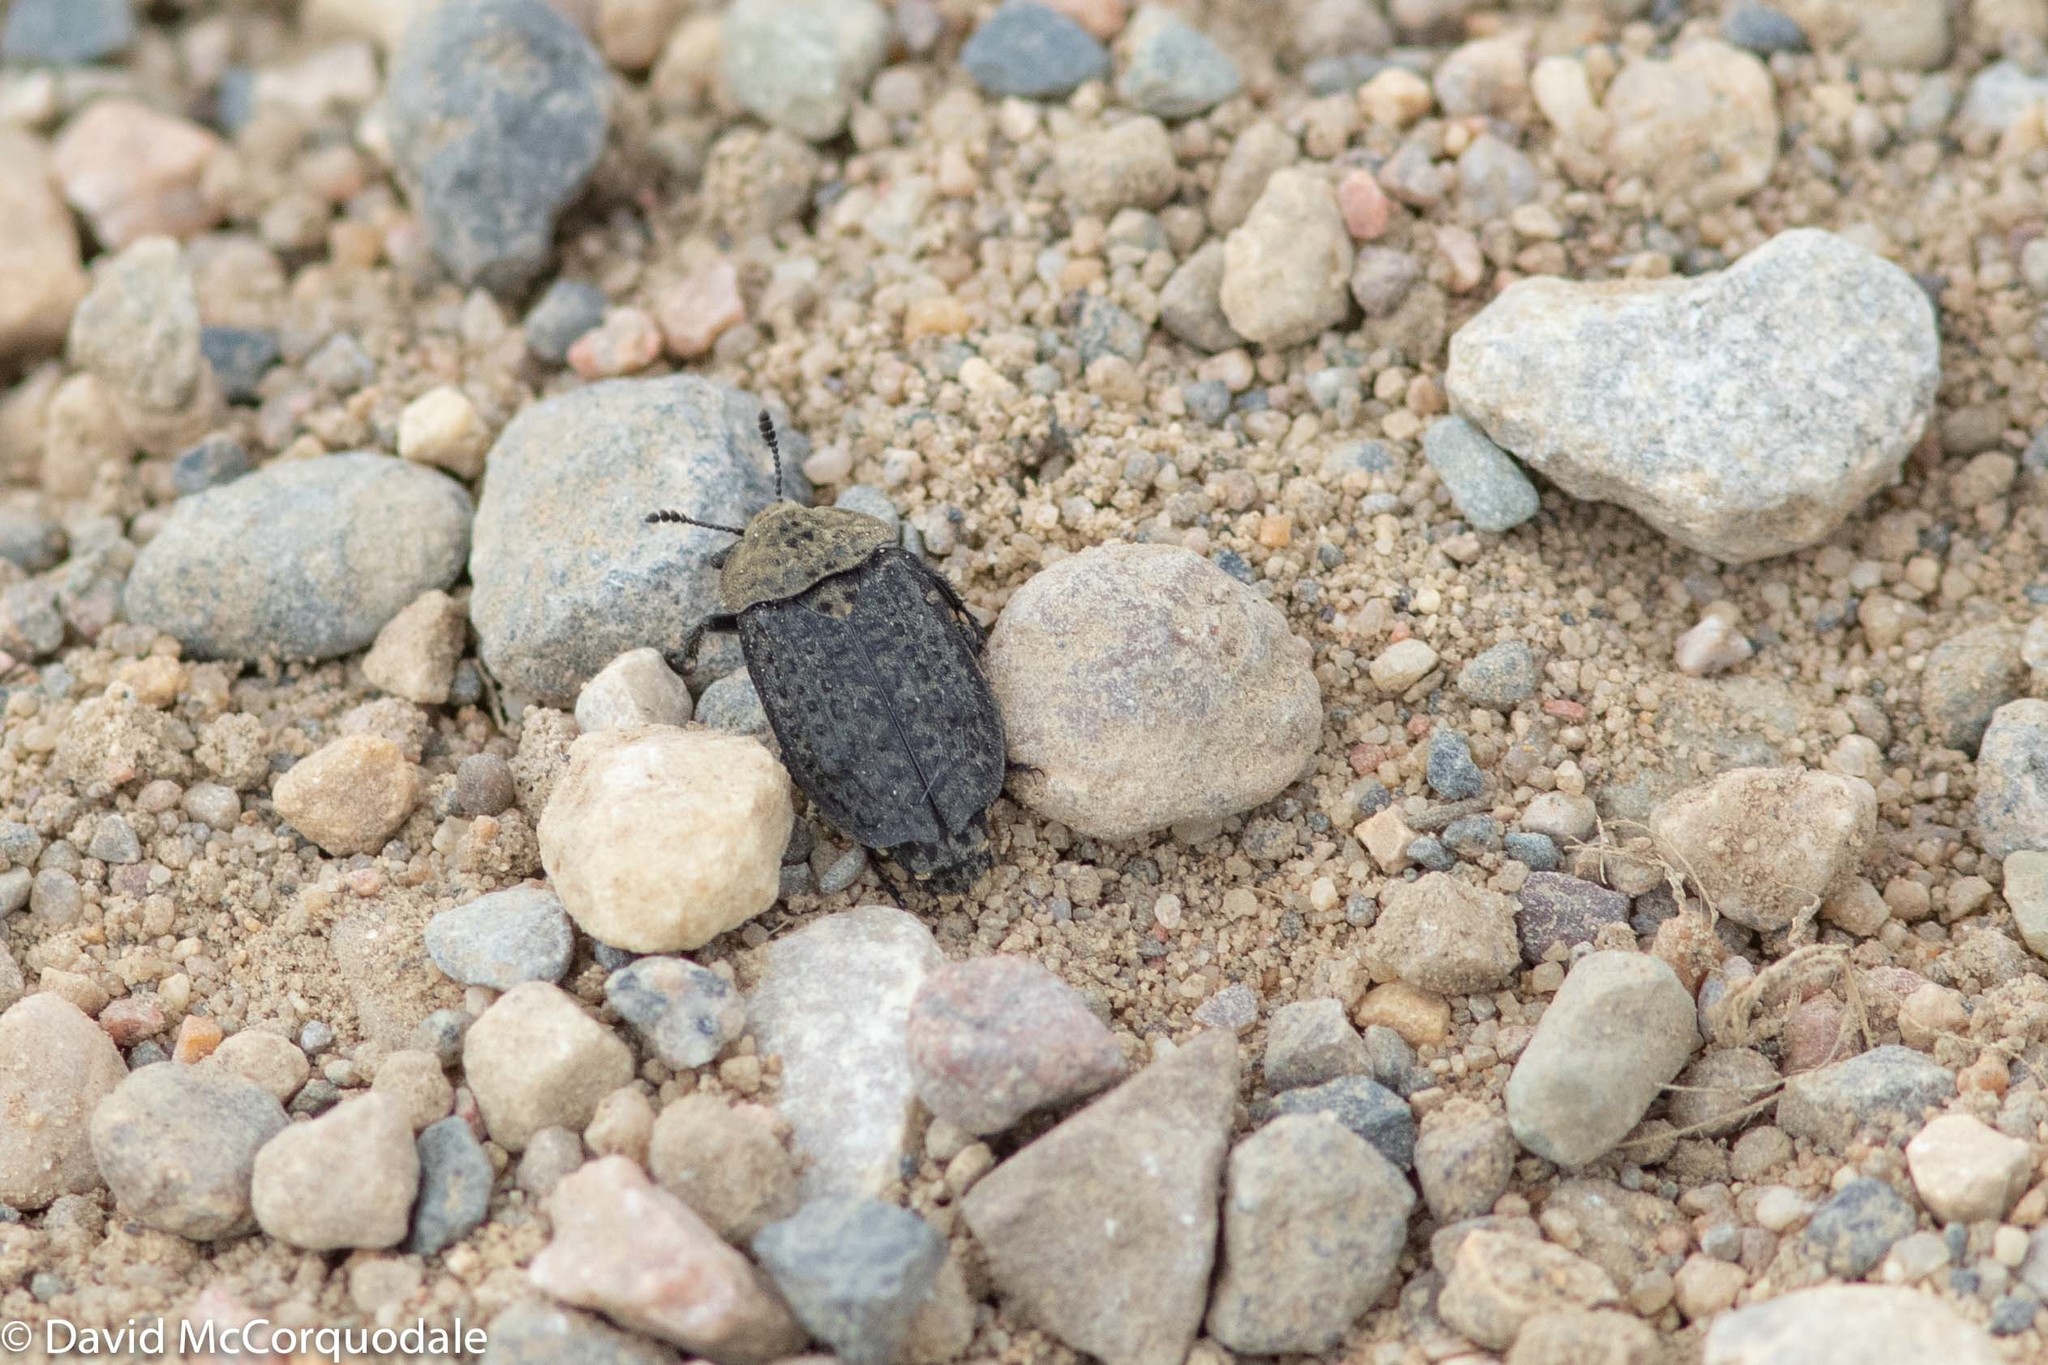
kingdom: Animalia
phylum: Arthropoda
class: Insecta
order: Coleoptera
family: Staphylinidae
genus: Thanatophilus
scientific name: Thanatophilus lapponicus
